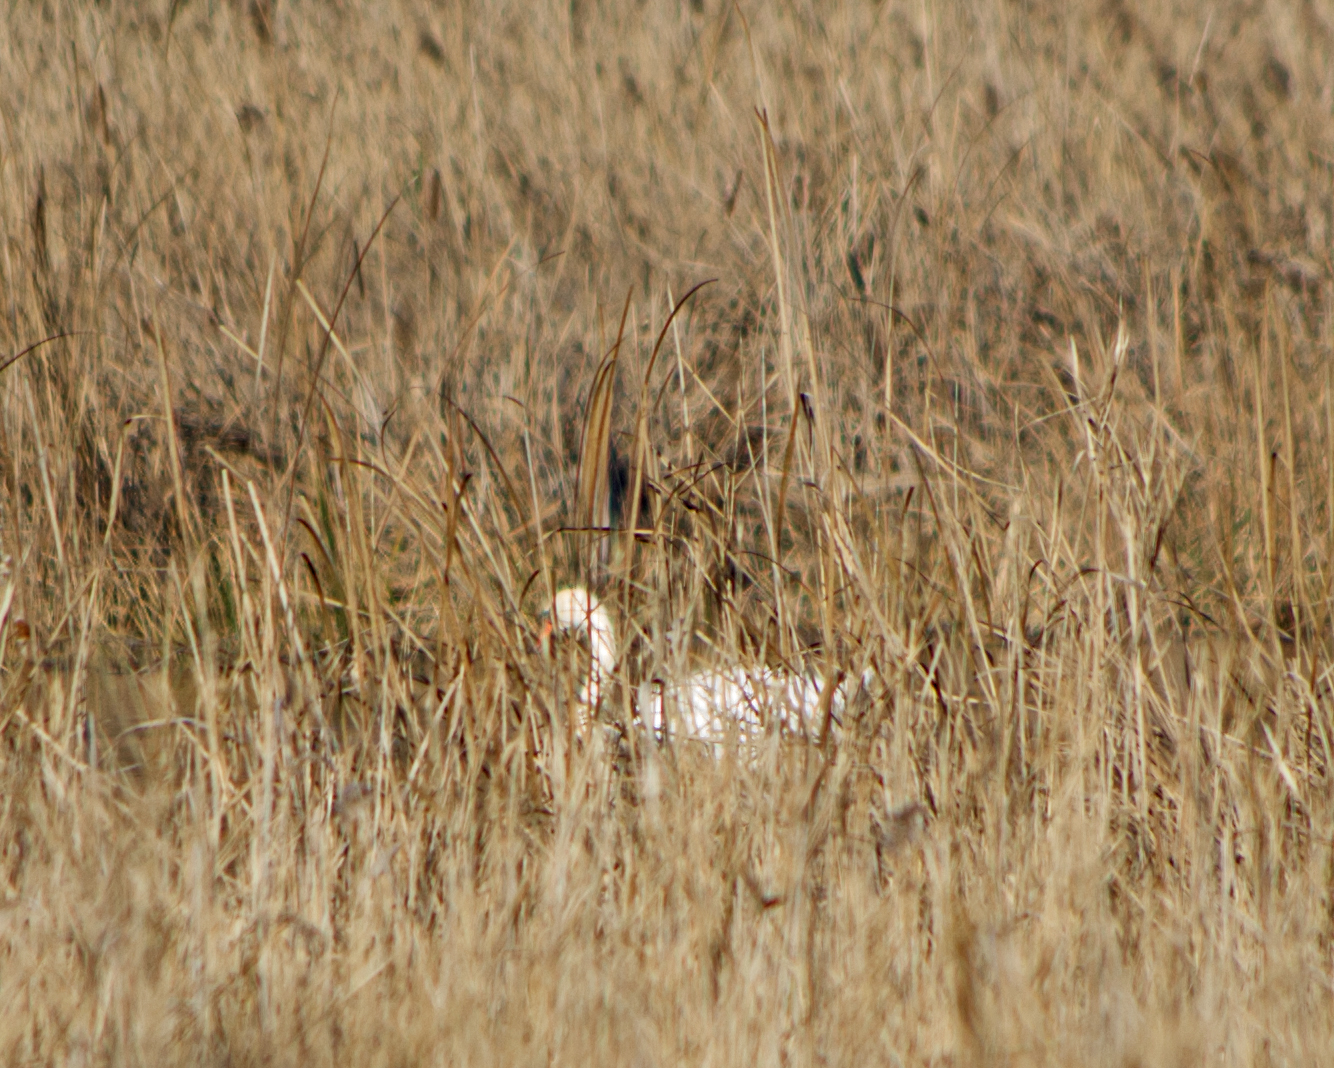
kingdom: Animalia
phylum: Chordata
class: Aves
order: Anseriformes
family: Anatidae
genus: Cygnus
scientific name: Cygnus olor
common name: Mute swan
